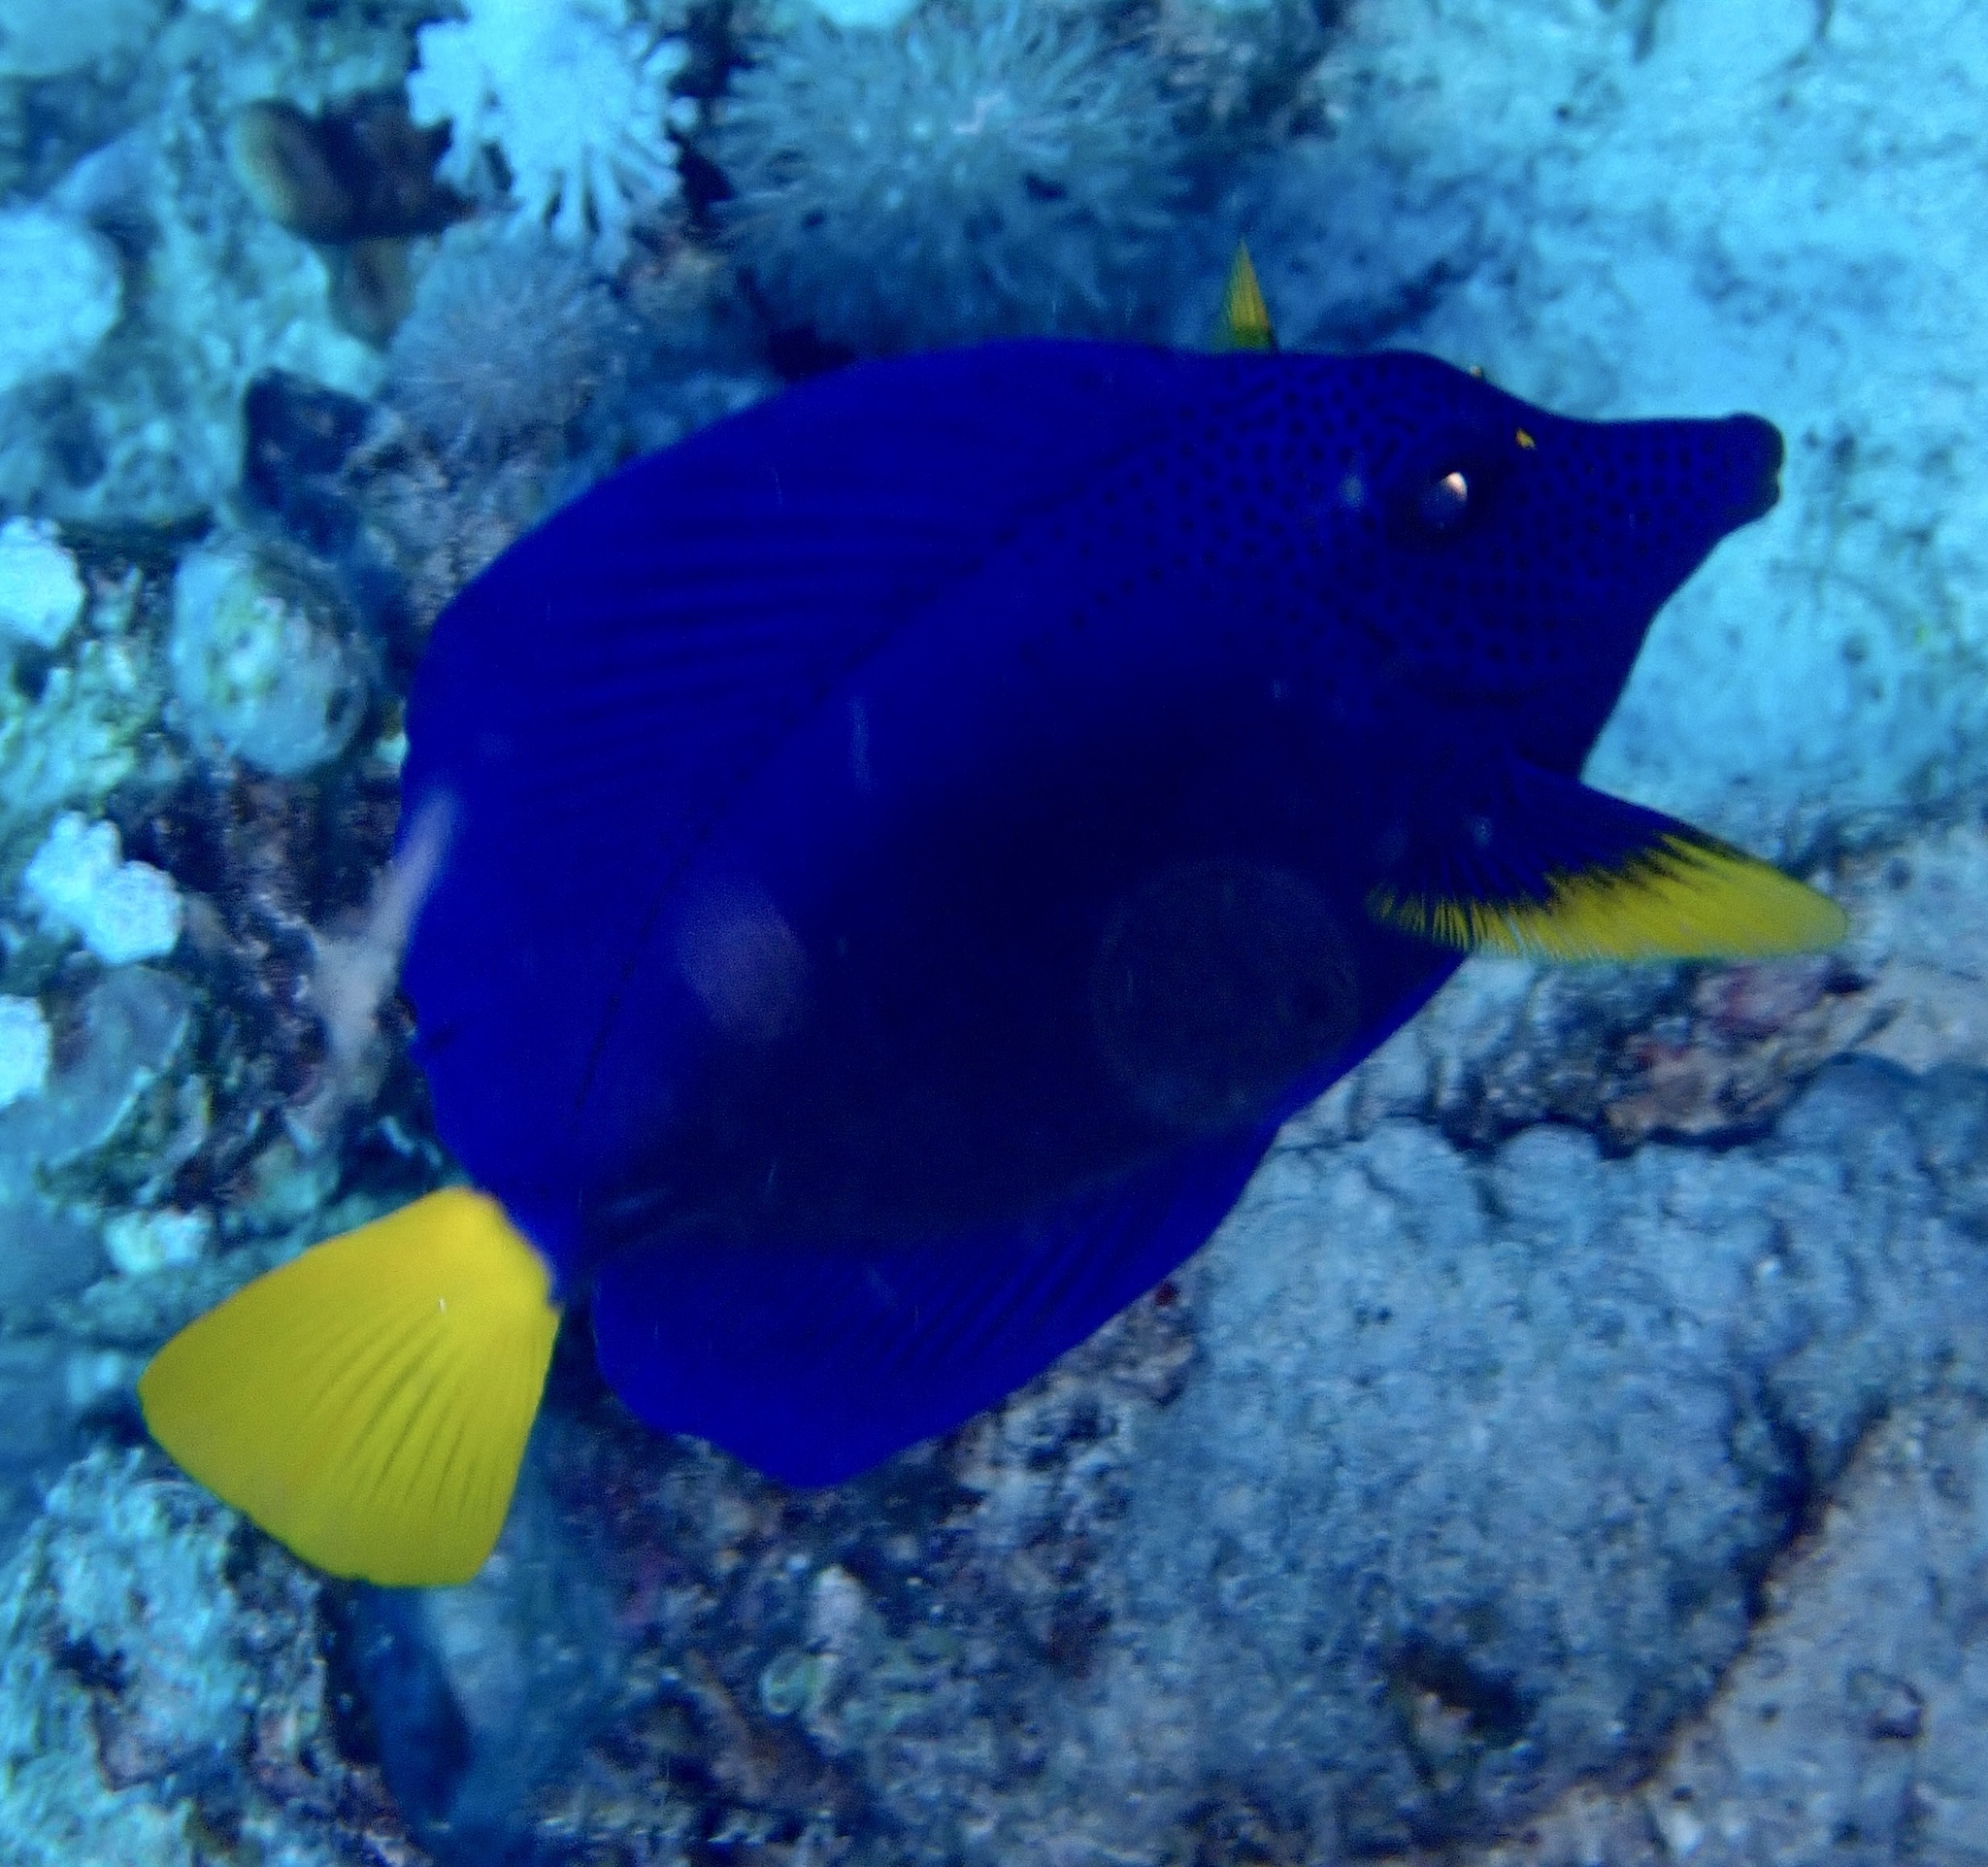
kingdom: Animalia
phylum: Chordata
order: Perciformes
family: Acanthuridae
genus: Zebrasoma
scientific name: Zebrasoma xanthurum
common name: Purple tang
